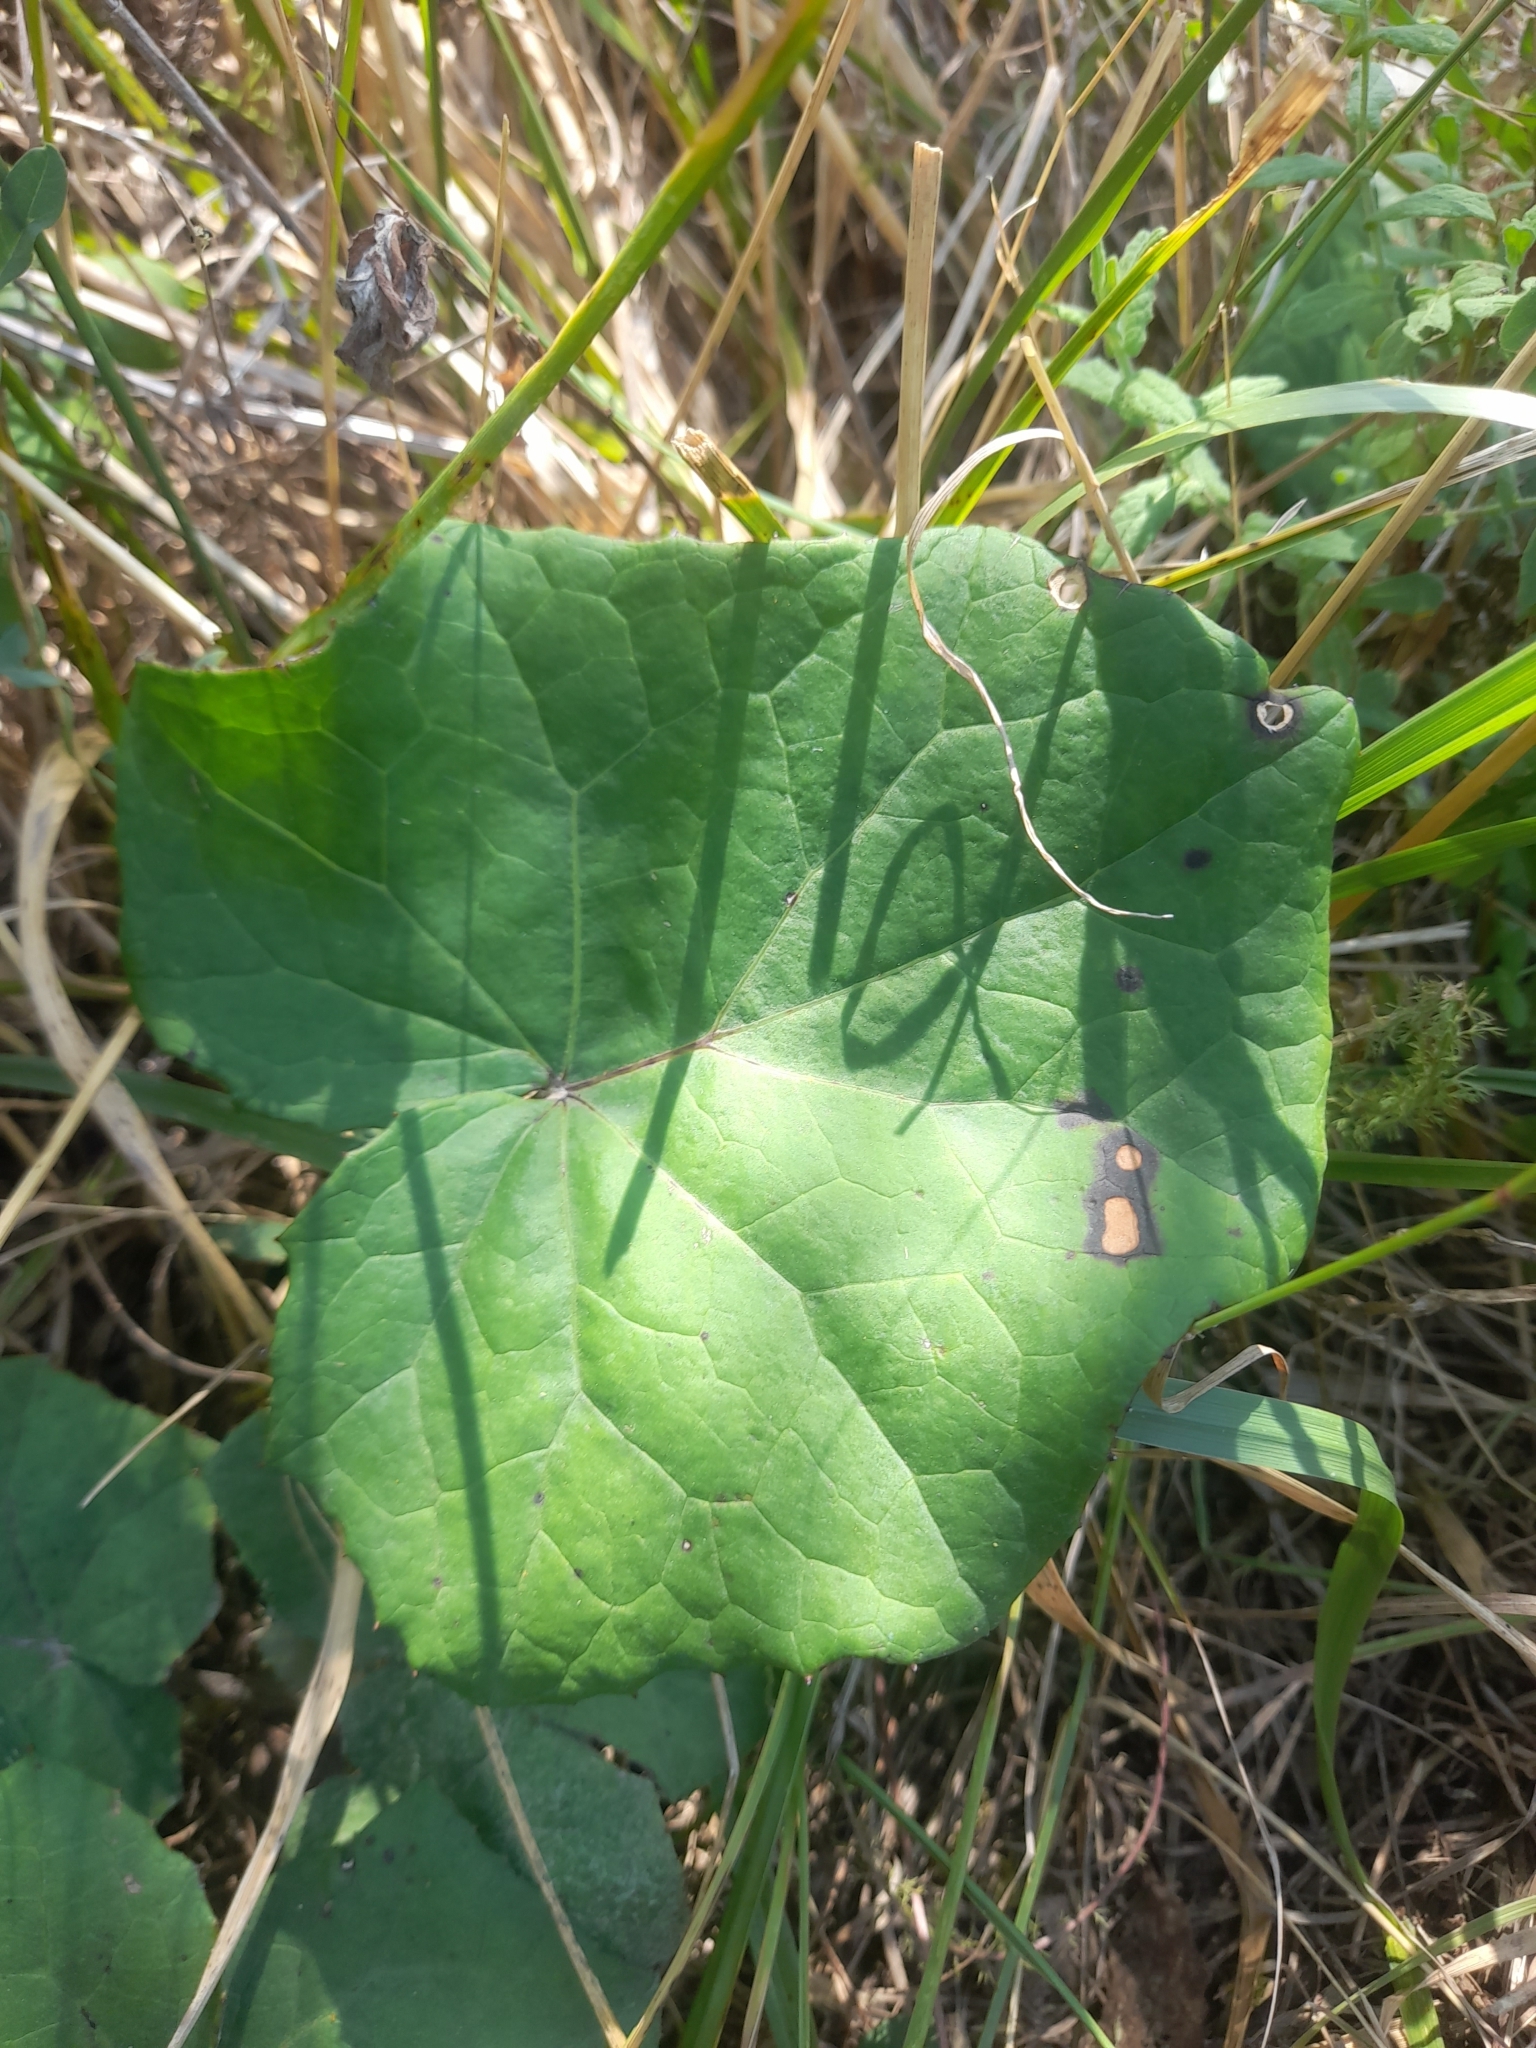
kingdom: Plantae
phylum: Tracheophyta
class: Magnoliopsida
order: Asterales
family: Asteraceae
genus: Tussilago
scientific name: Tussilago farfara
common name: Coltsfoot
